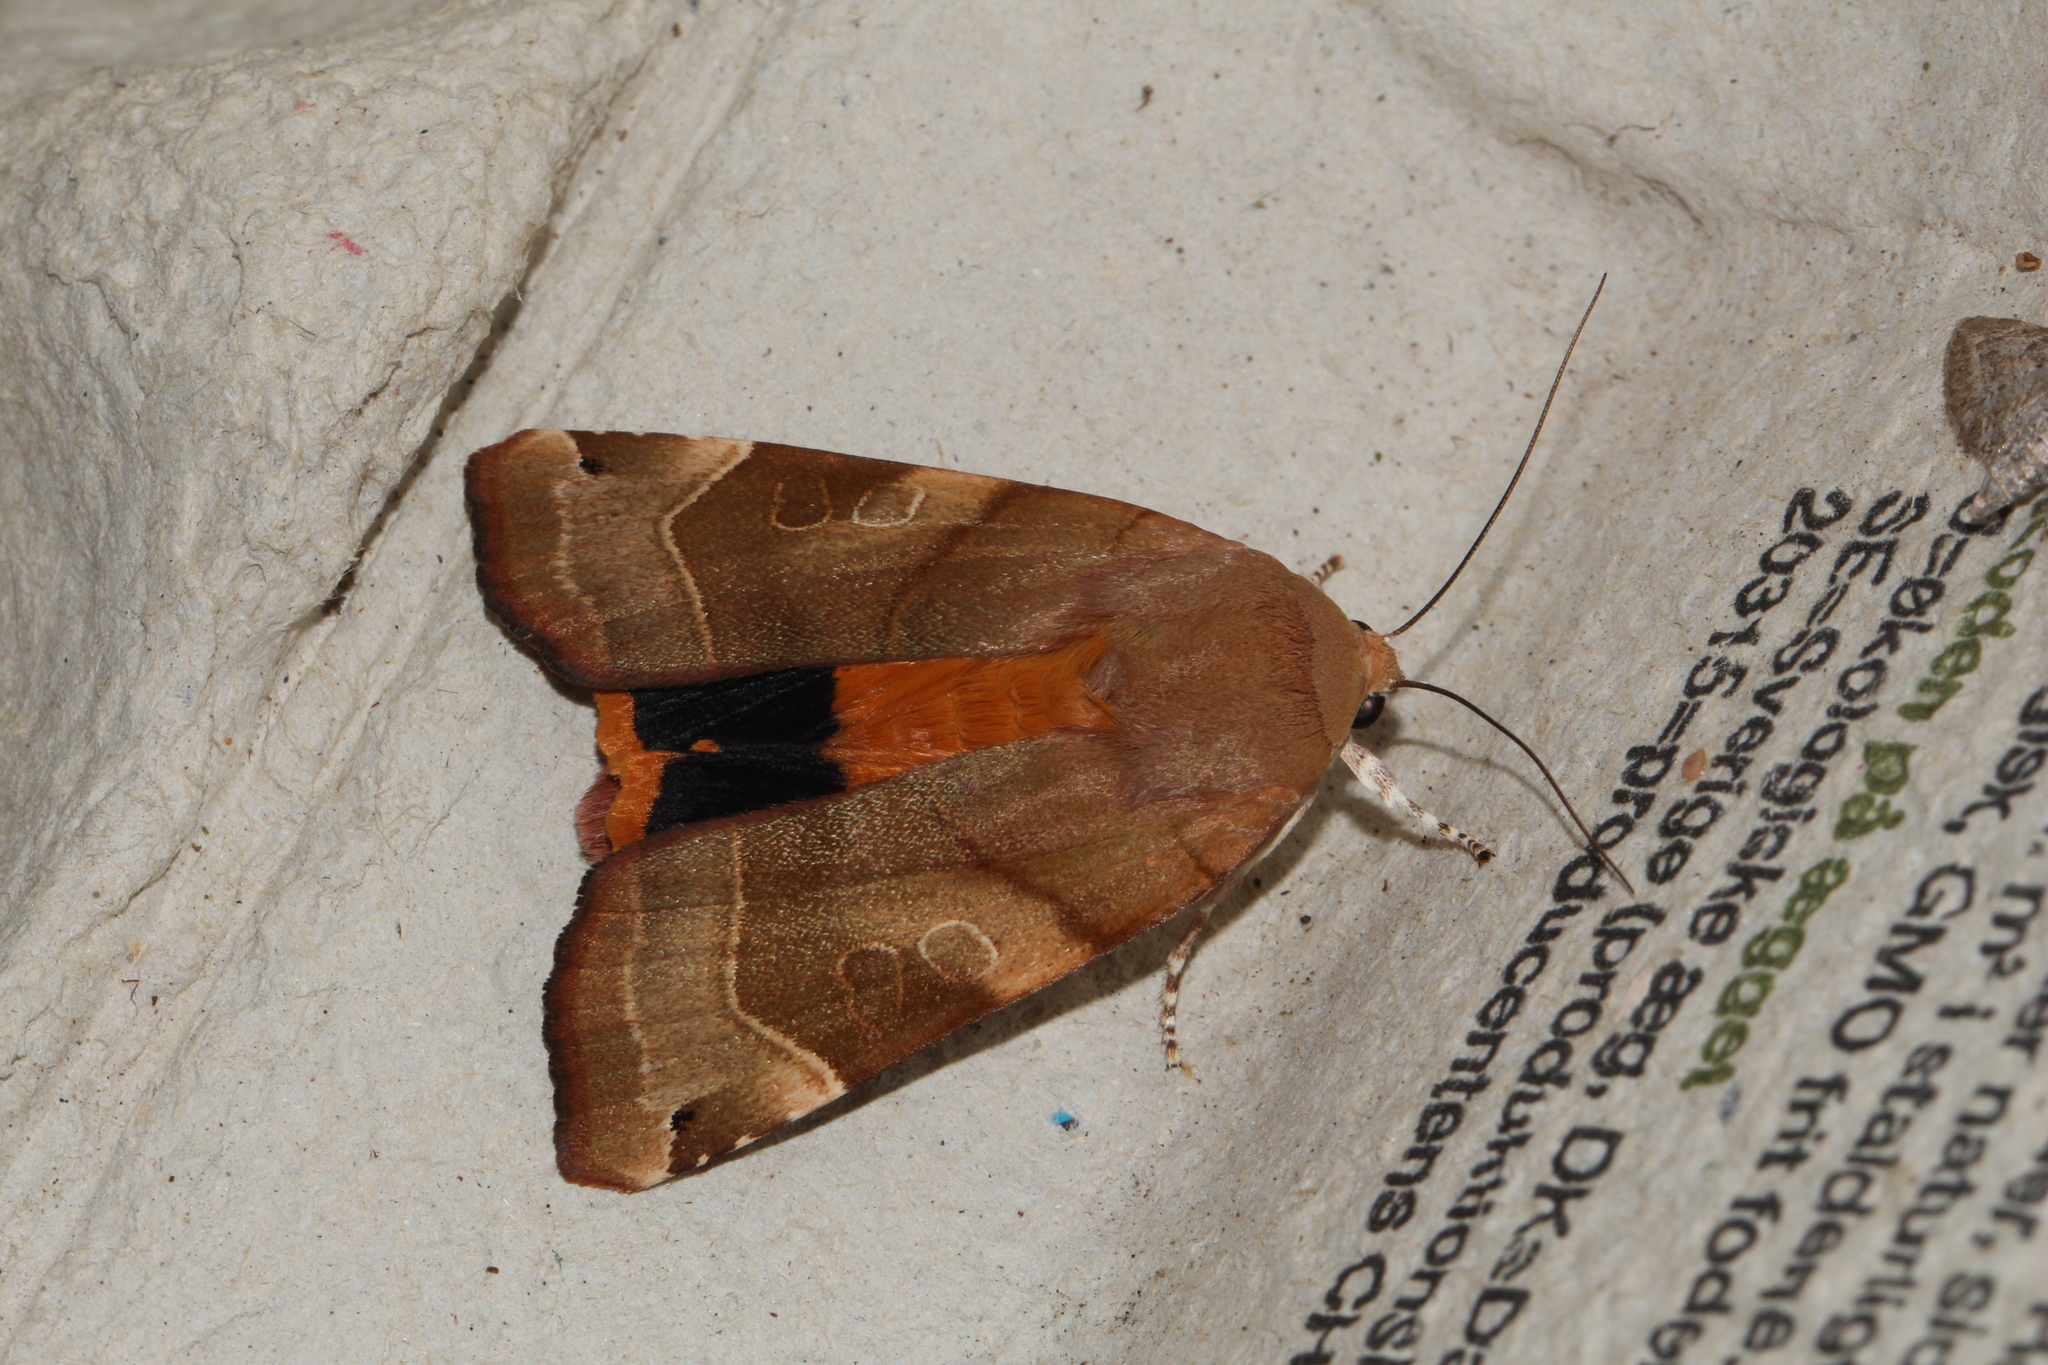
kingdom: Animalia
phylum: Arthropoda
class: Insecta
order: Lepidoptera
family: Noctuidae
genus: Noctua
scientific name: Noctua fimbriata
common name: Broad-bordered yellow underwing
